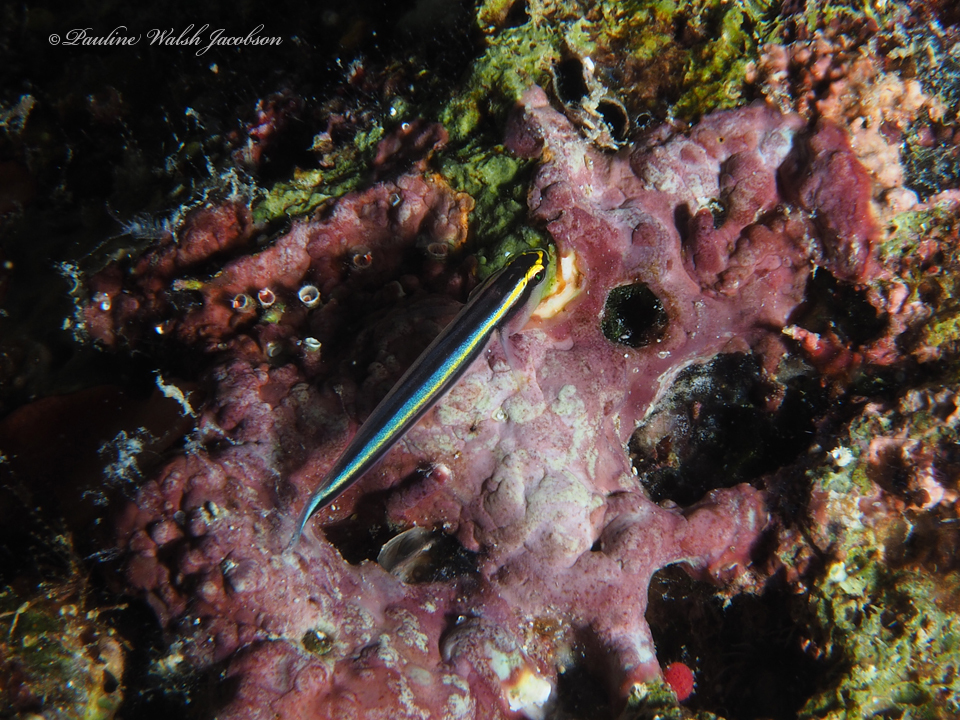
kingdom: Animalia
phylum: Chordata
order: Perciformes
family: Gobiidae
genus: Elacatinus
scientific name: Elacatinus evelynae
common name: Sharknose goby
